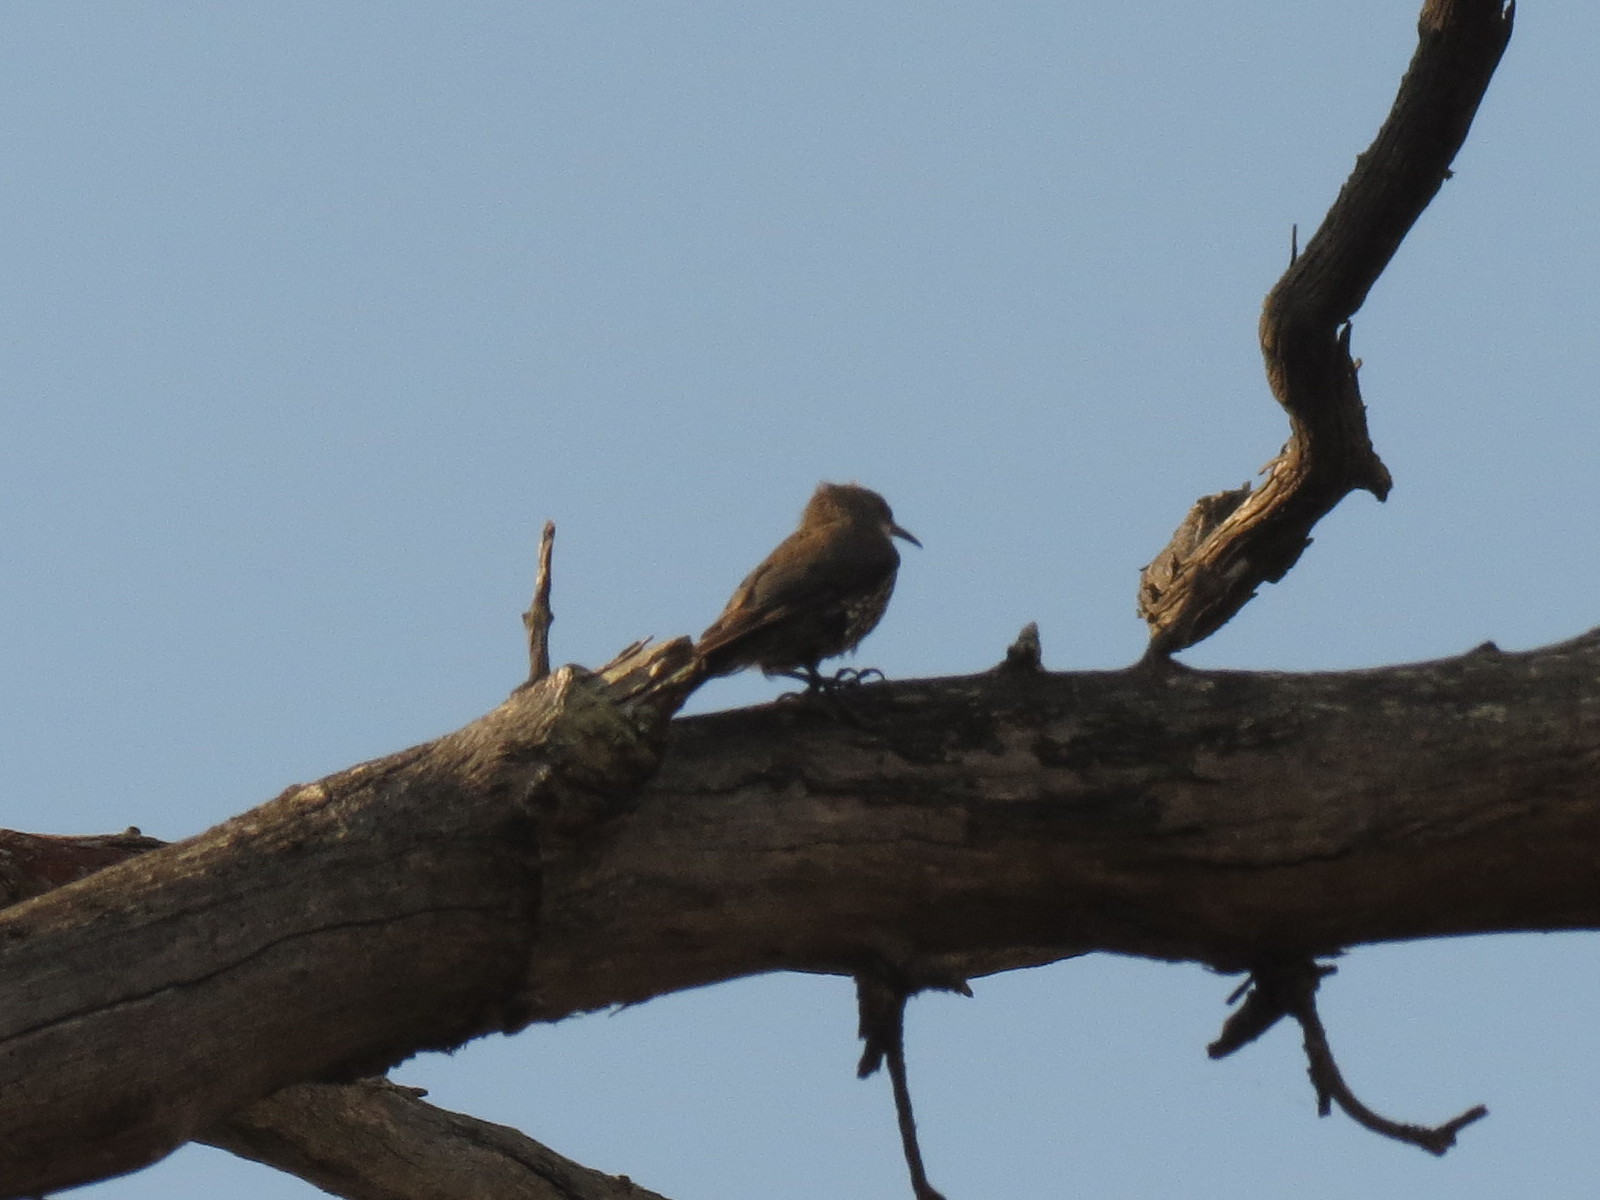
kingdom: Animalia
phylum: Chordata
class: Aves
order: Passeriformes
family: Climacteridae
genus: Cormobates
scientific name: Cormobates leucophaea
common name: White-throated treecreeper
